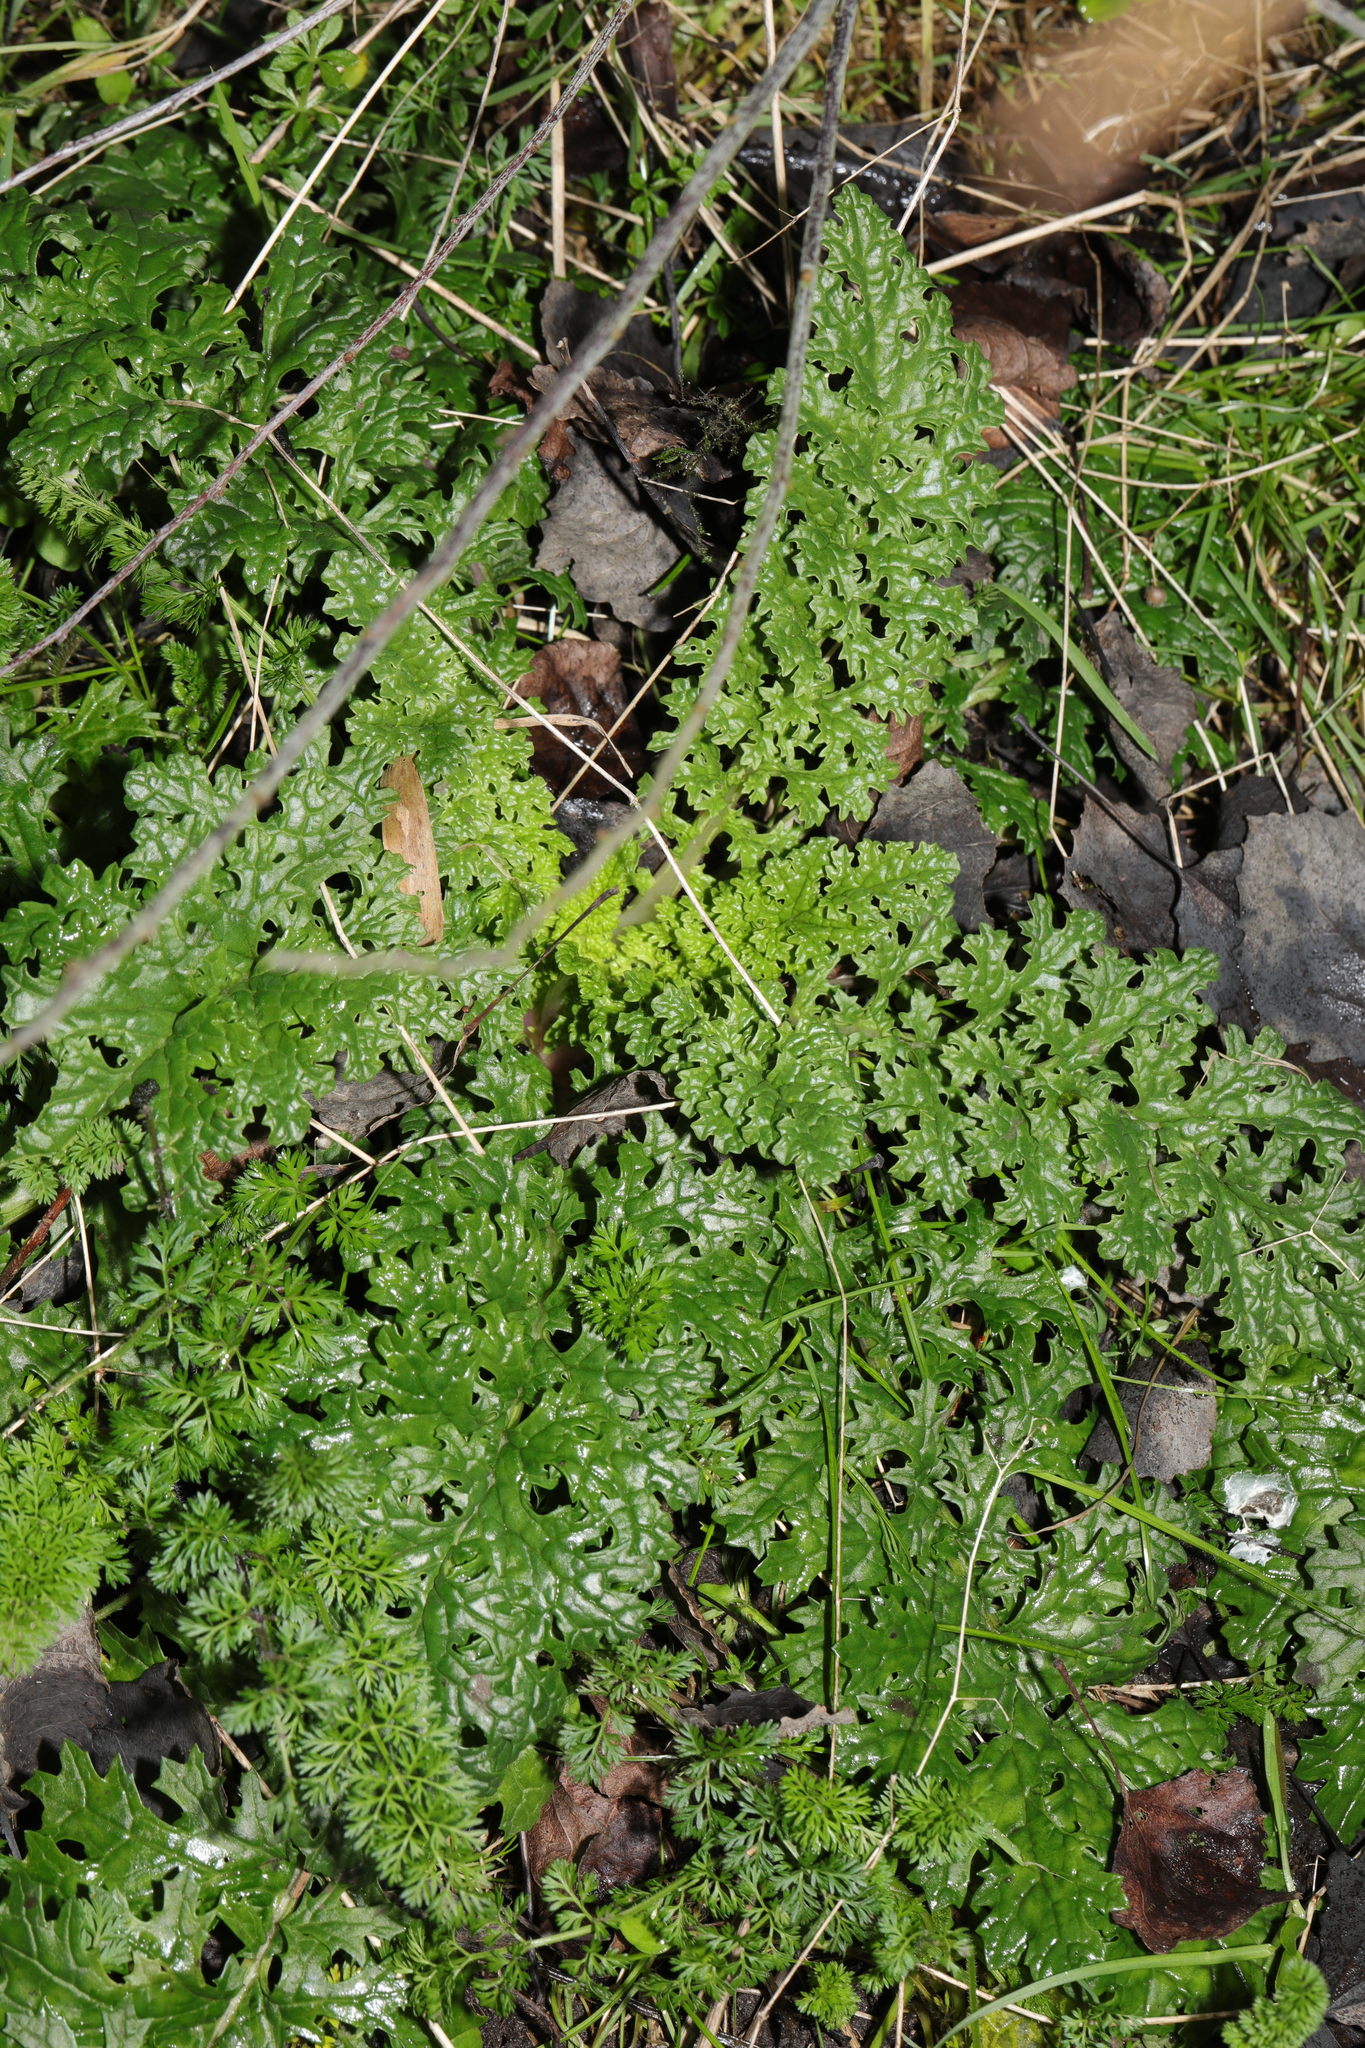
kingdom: Plantae
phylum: Tracheophyta
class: Magnoliopsida
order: Asterales
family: Asteraceae
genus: Jacobaea
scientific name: Jacobaea vulgaris
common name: Stinking willie
